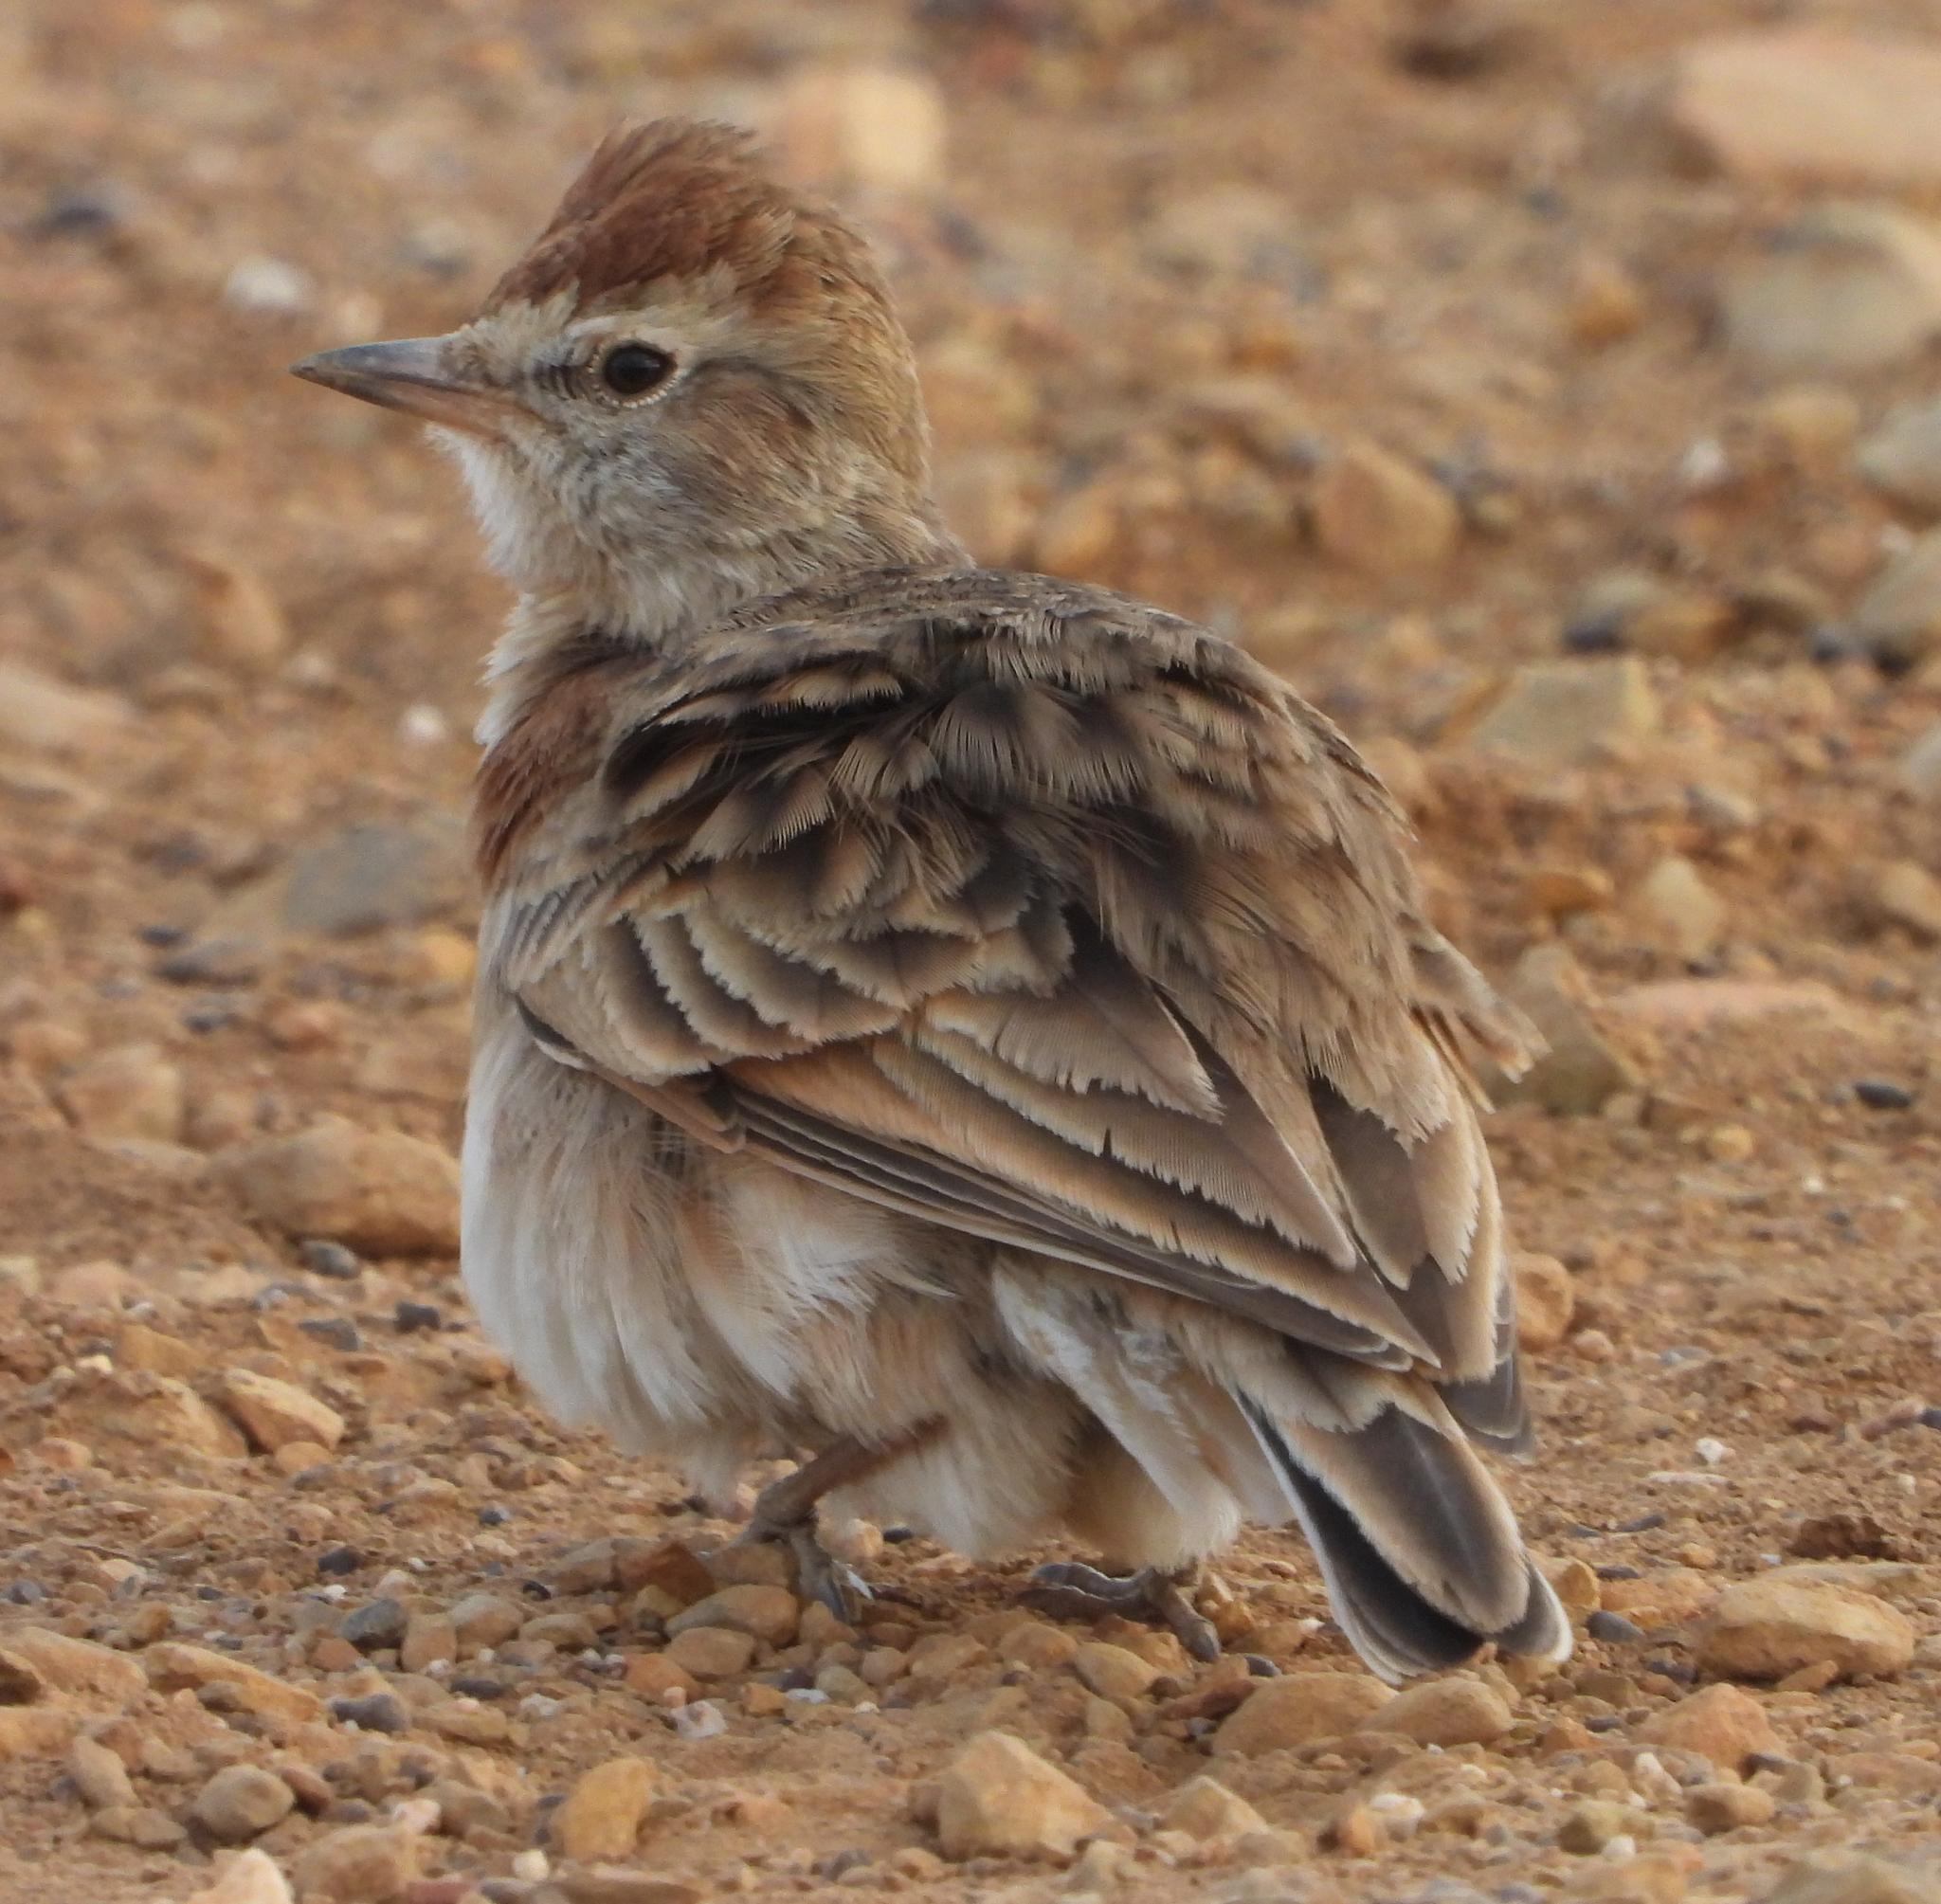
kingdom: Animalia
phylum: Chordata
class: Aves
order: Passeriformes
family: Alaudidae
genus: Calandrella
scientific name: Calandrella cinerea
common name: Red-capped lark
